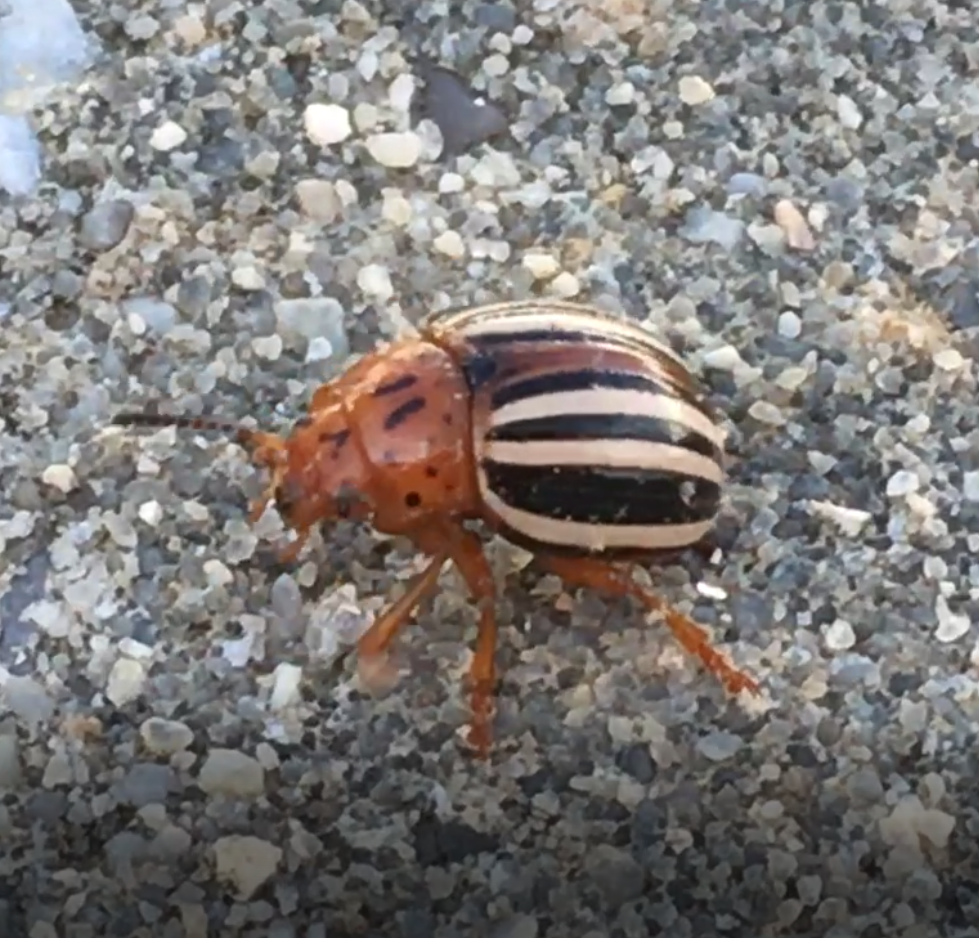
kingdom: Animalia
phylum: Arthropoda
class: Insecta
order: Coleoptera
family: Chrysomelidae
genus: Leptinotarsa
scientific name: Leptinotarsa juncta
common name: False potato beetle
